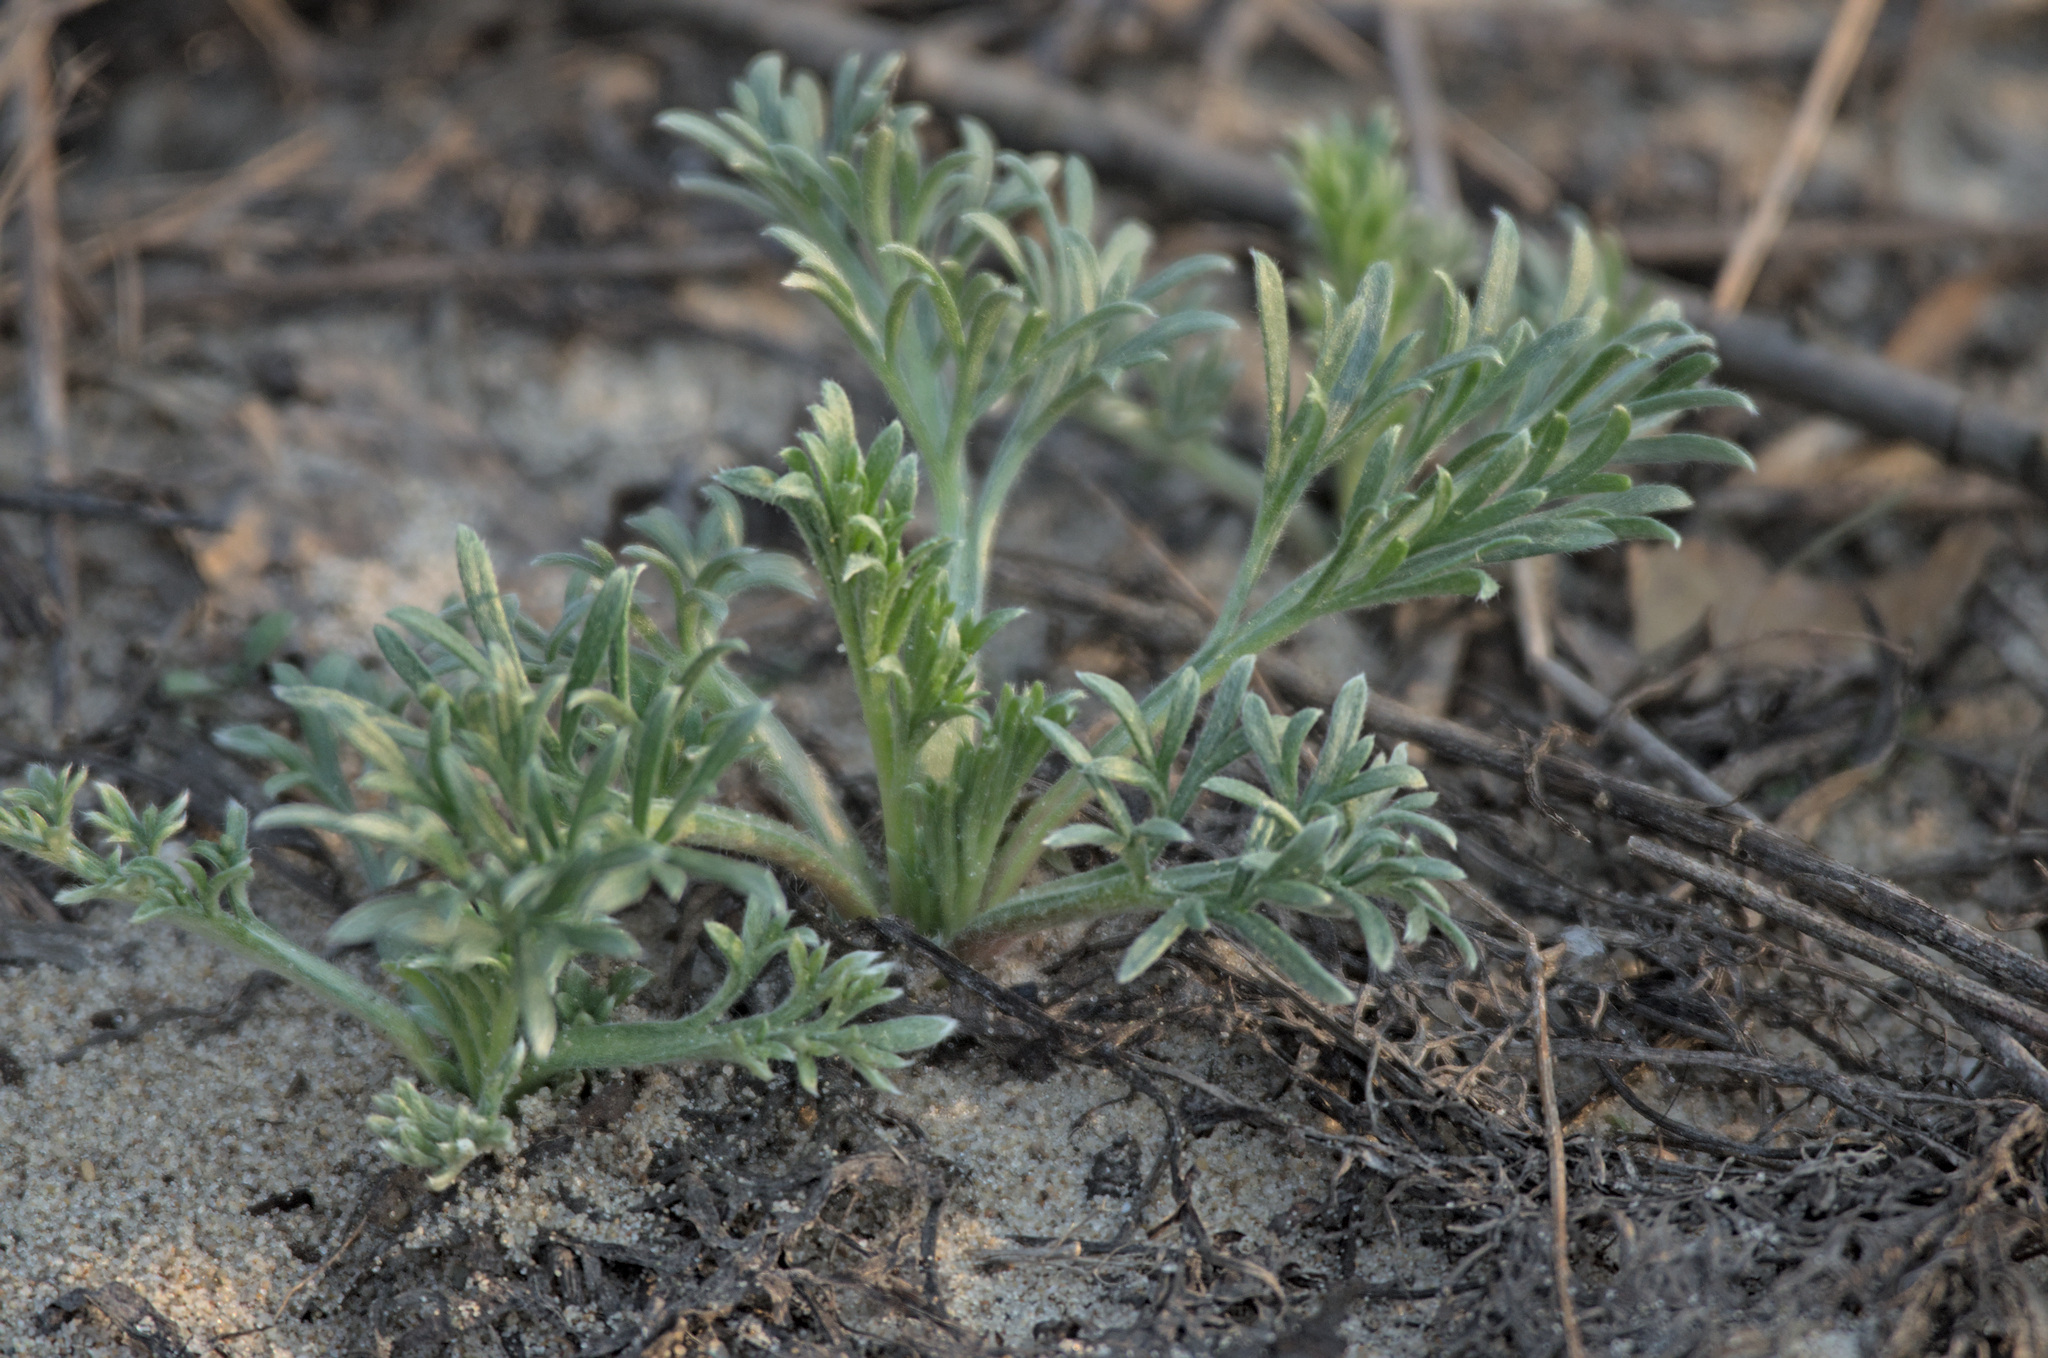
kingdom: Plantae
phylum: Tracheophyta
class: Magnoliopsida
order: Asterales
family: Asteraceae
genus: Artemisia
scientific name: Artemisia campestris
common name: Field wormwood
